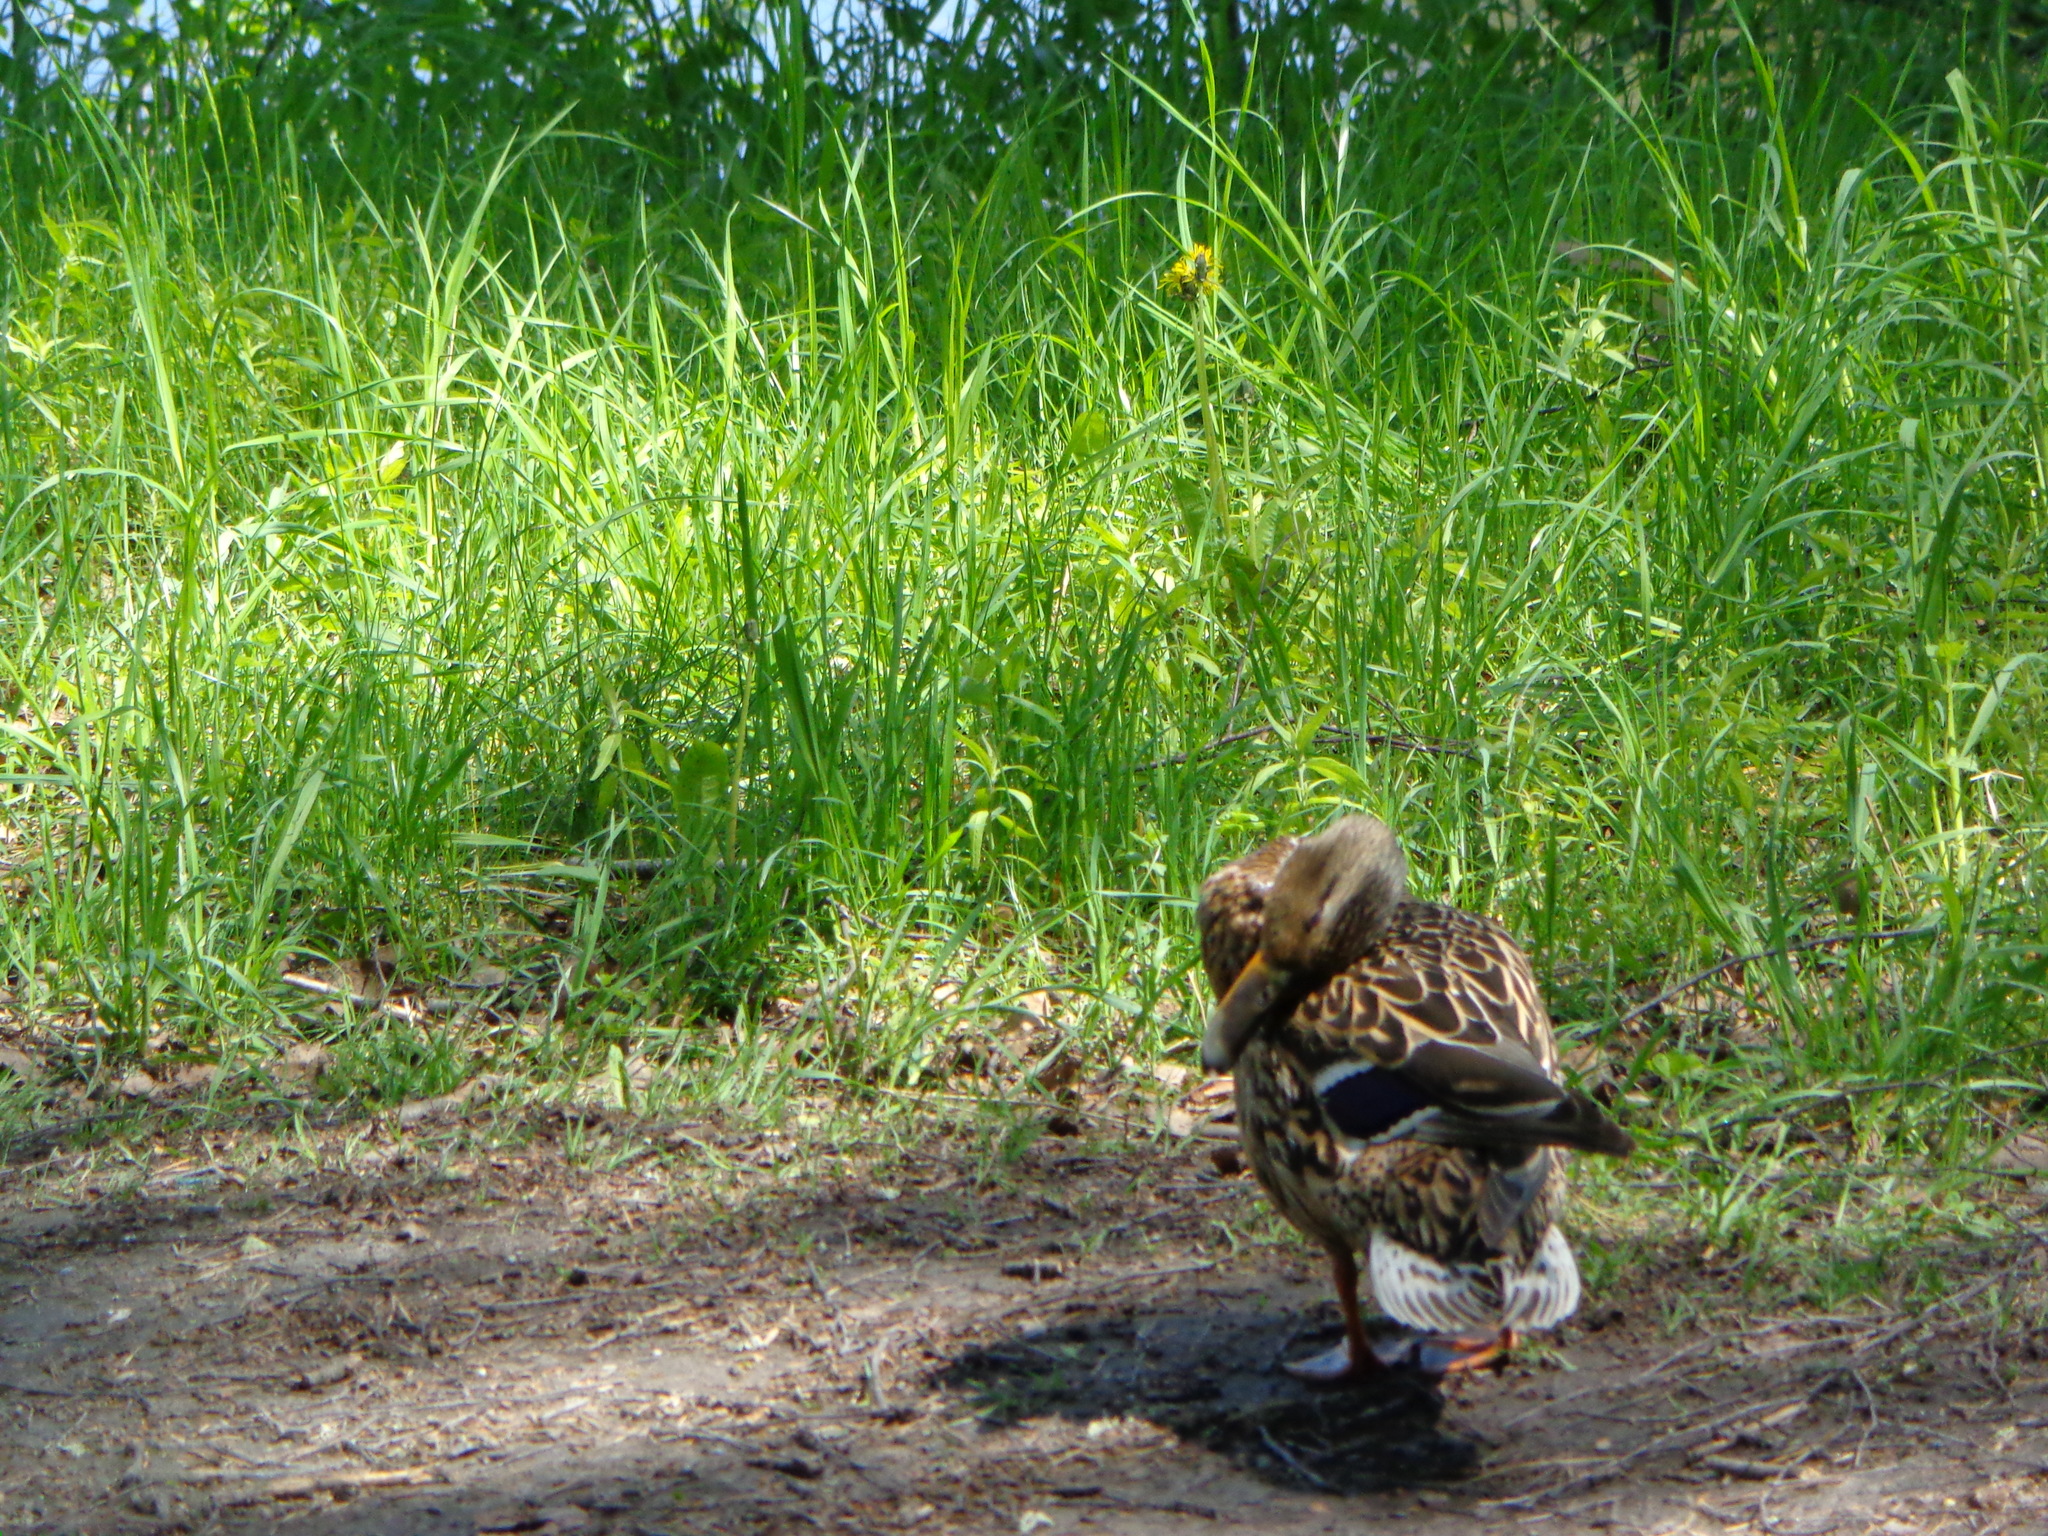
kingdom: Animalia
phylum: Chordata
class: Aves
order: Anseriformes
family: Anatidae
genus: Anas
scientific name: Anas platyrhynchos
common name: Mallard
